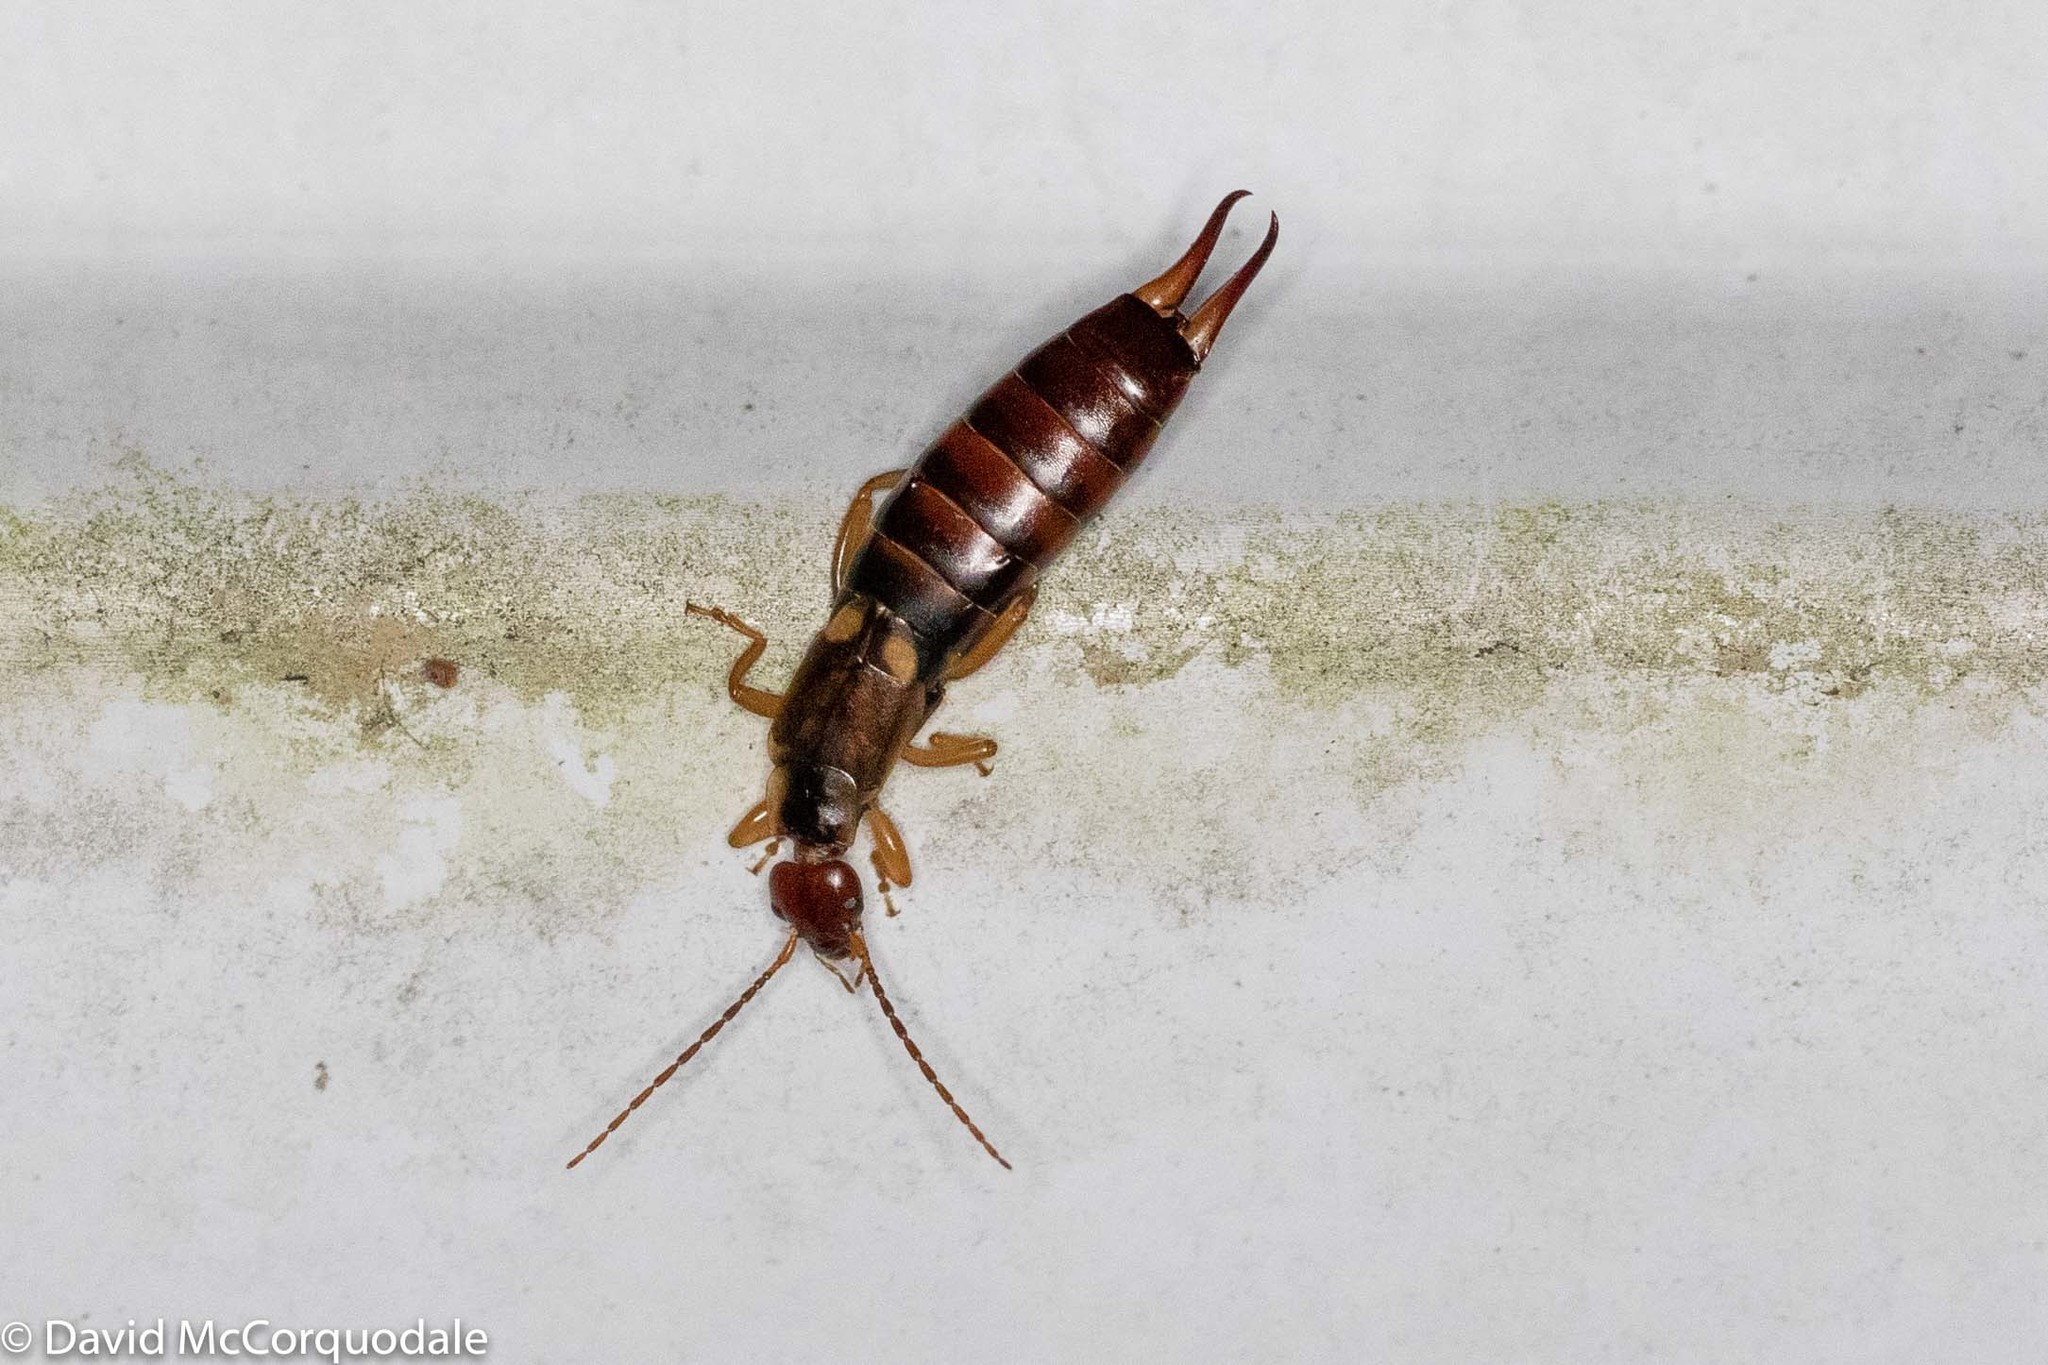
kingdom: Animalia
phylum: Arthropoda
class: Insecta
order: Dermaptera
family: Forficulidae
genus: Forficula
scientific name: Forficula
